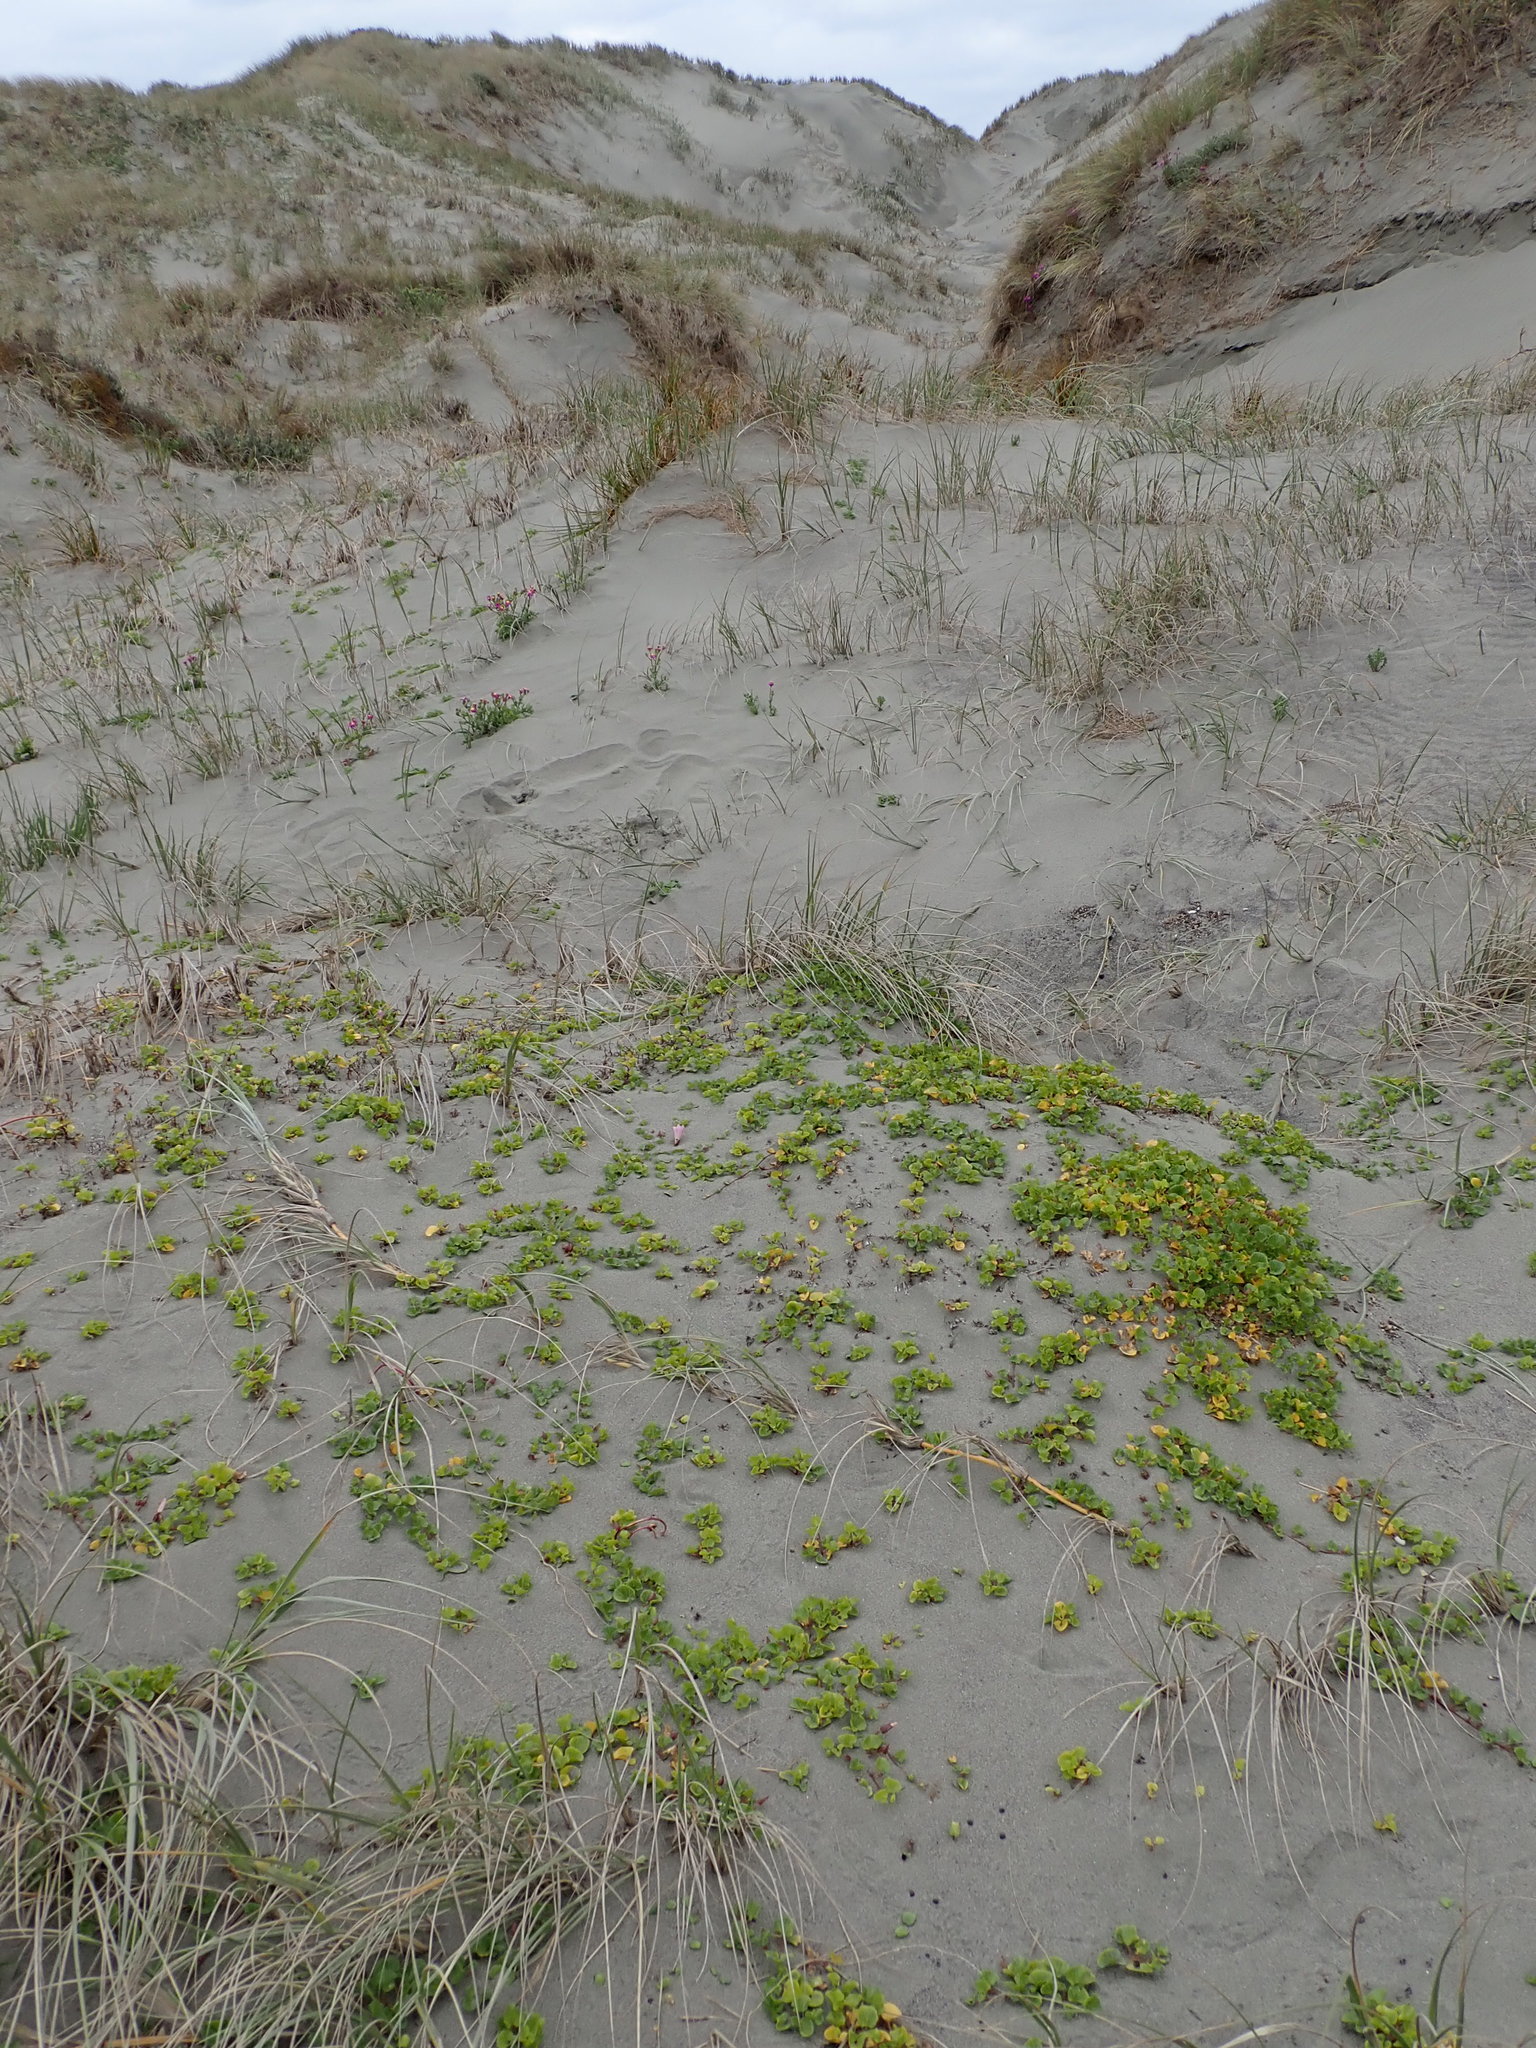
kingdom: Plantae
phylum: Tracheophyta
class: Magnoliopsida
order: Solanales
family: Convolvulaceae
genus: Calystegia
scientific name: Calystegia soldanella
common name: Sea bindweed
